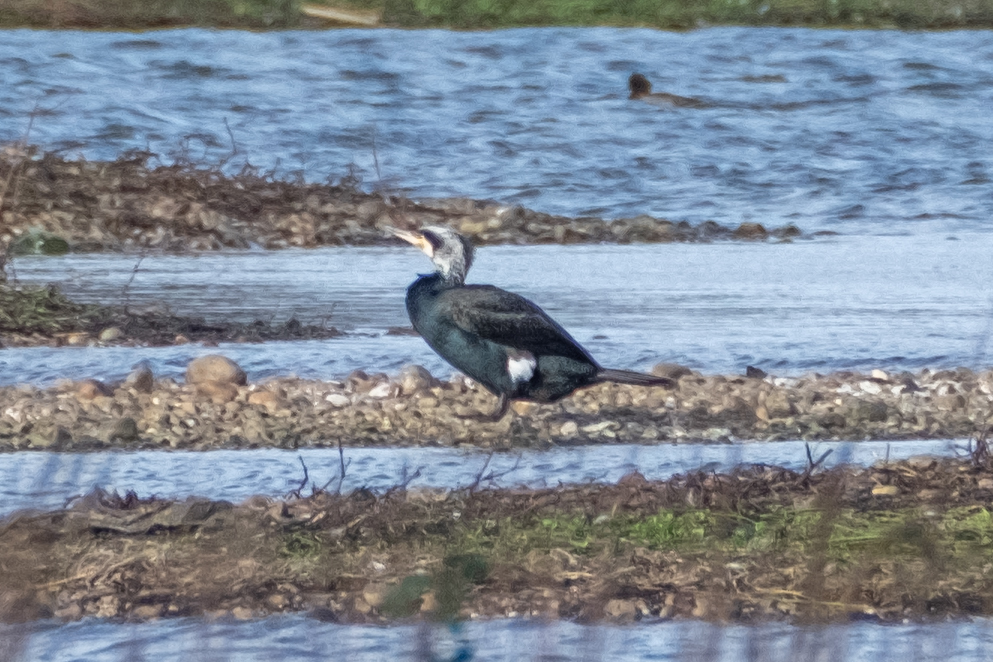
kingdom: Animalia
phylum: Chordata
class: Aves
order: Suliformes
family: Phalacrocoracidae
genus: Phalacrocorax
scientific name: Phalacrocorax carbo
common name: Great cormorant
